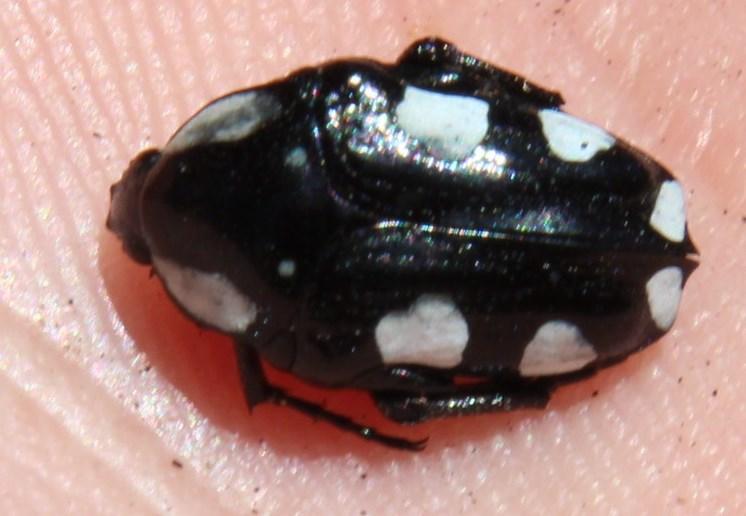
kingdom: Animalia
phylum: Arthropoda
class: Insecta
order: Coleoptera
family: Scarabaeidae
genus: Mausoleopsis
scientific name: Mausoleopsis amabilis
